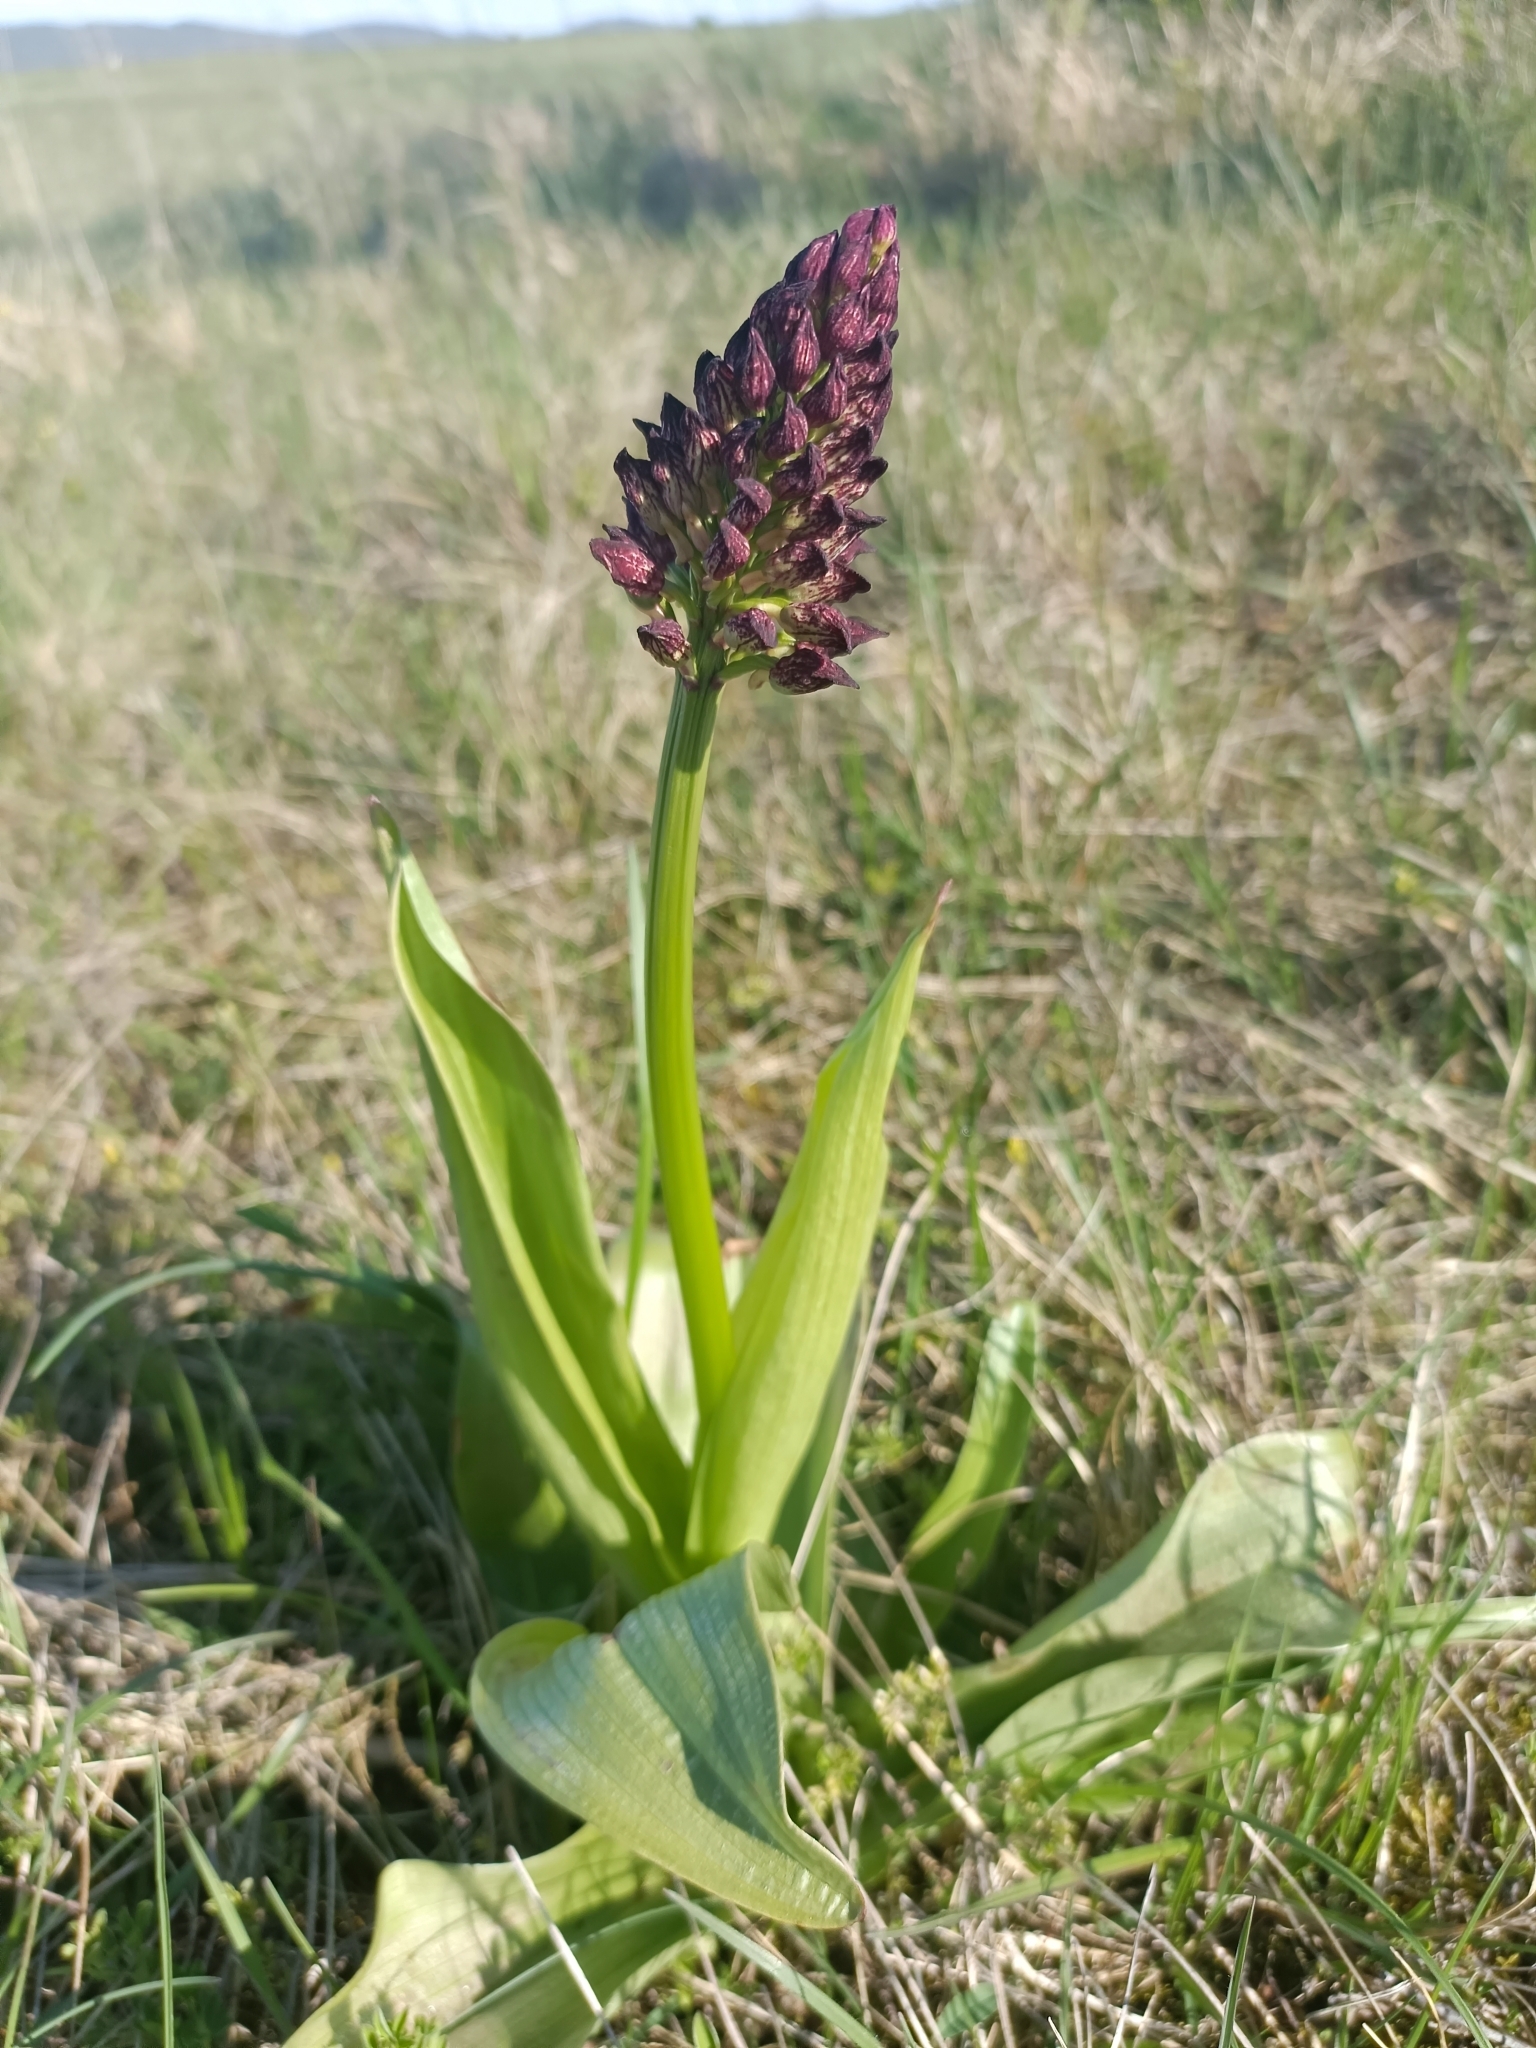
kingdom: Plantae
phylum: Tracheophyta
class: Liliopsida
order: Asparagales
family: Orchidaceae
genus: Orchis
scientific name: Orchis purpurea
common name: Lady orchid
